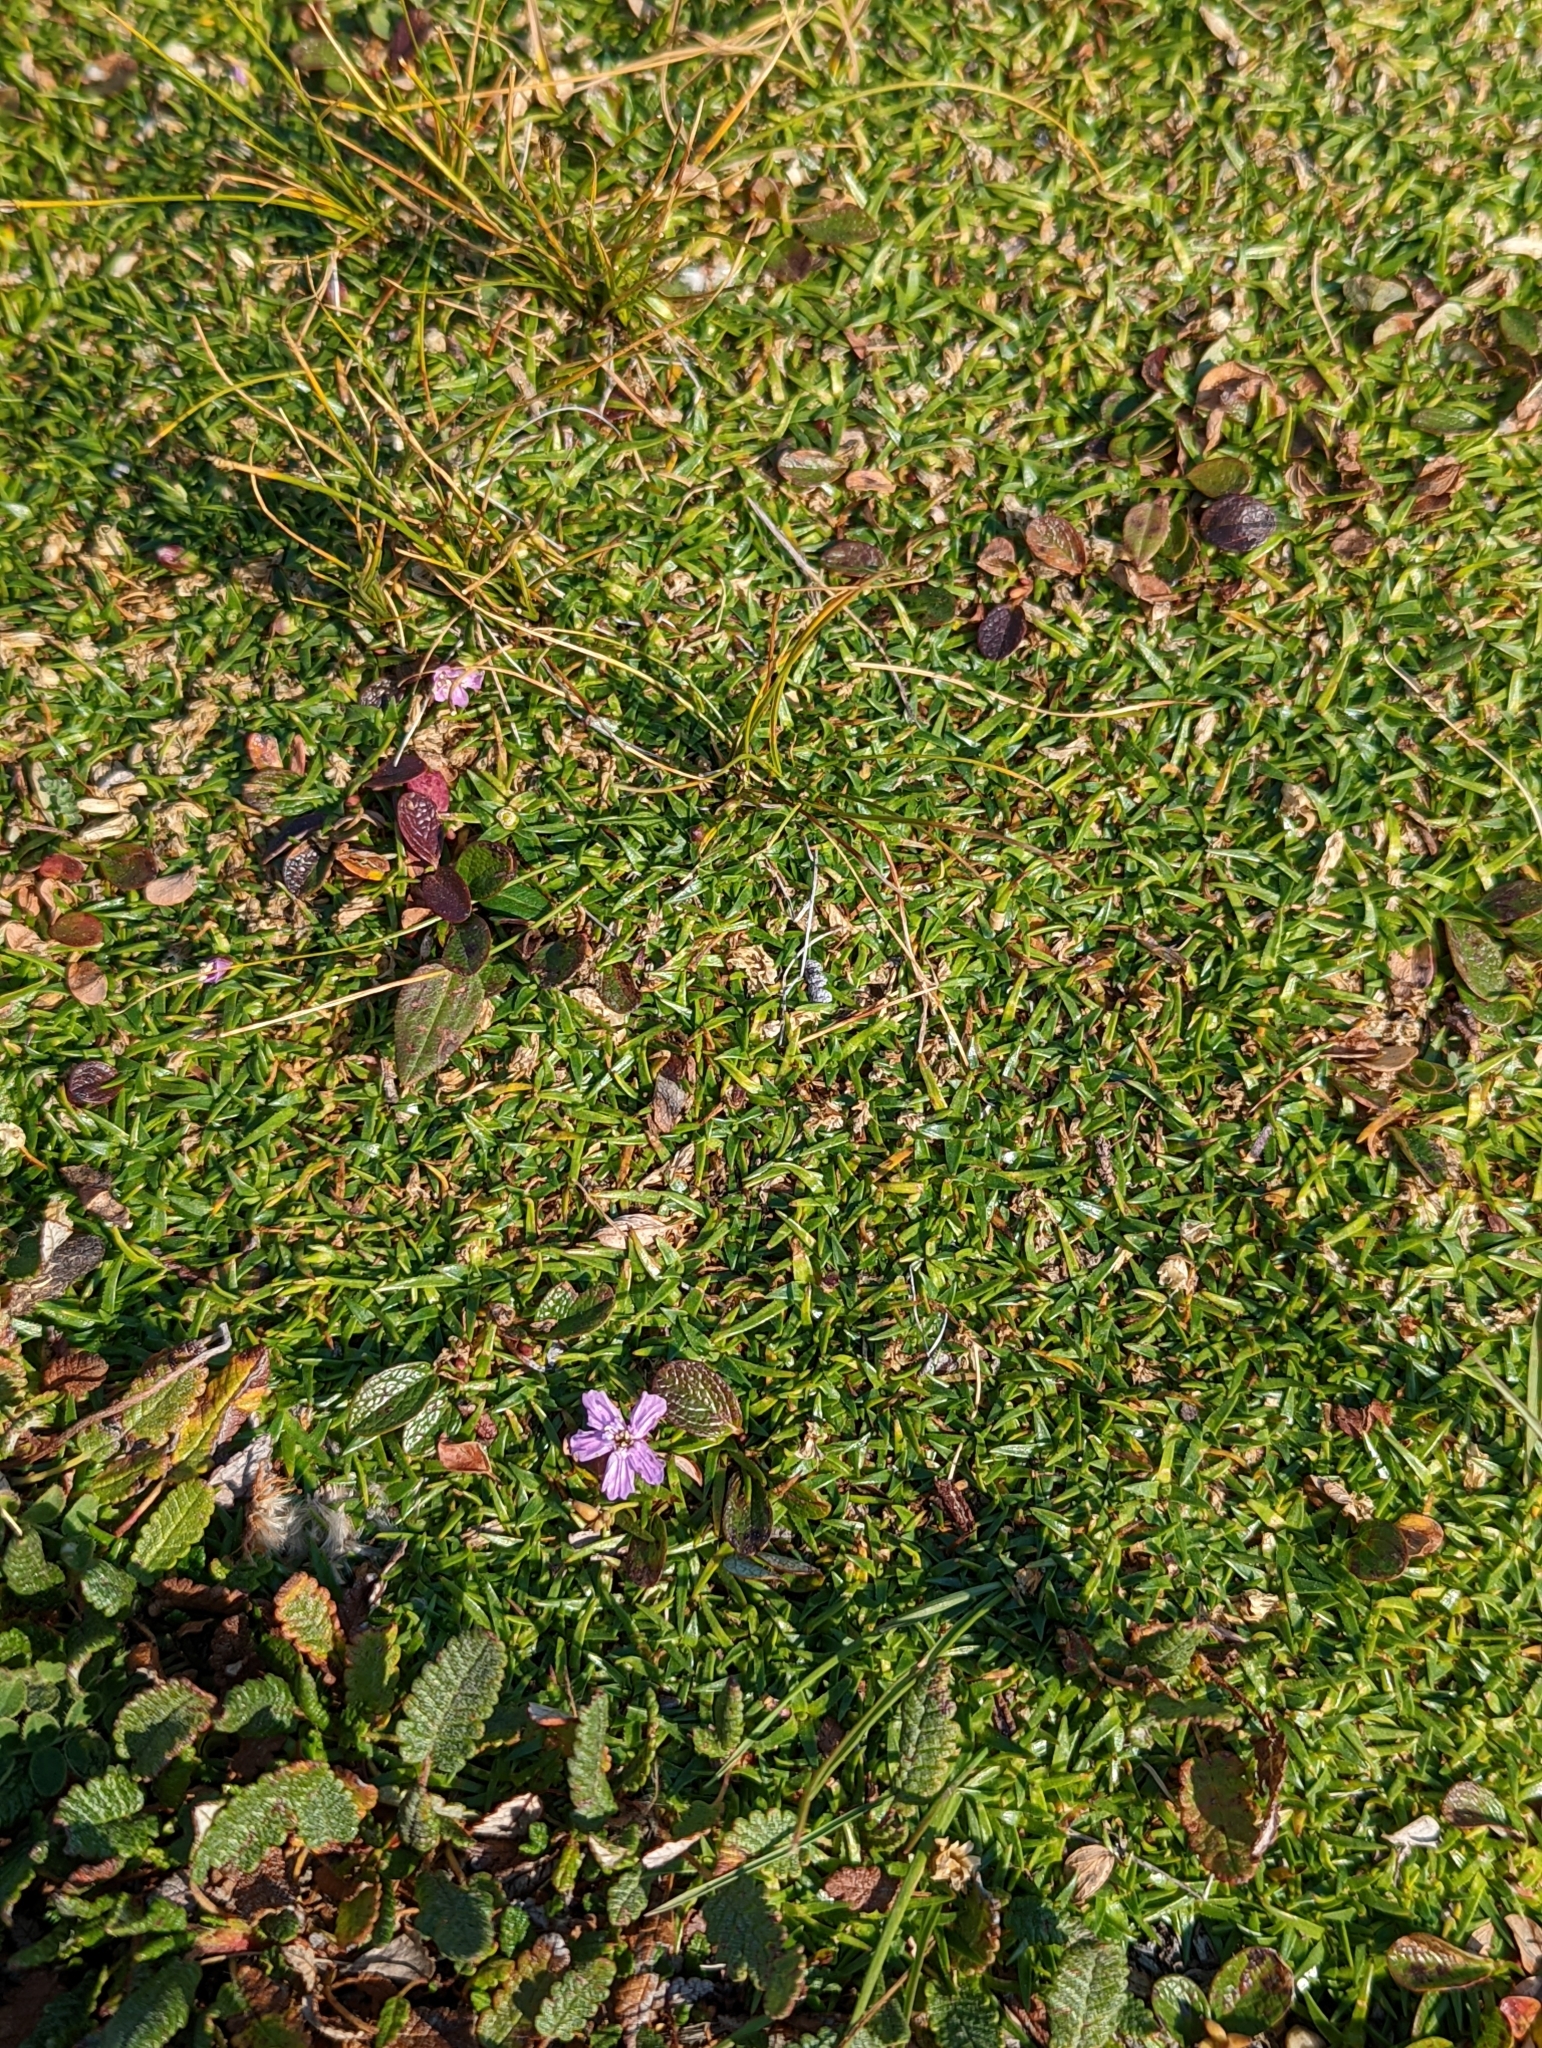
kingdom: Plantae
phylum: Tracheophyta
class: Magnoliopsida
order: Caryophyllales
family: Caryophyllaceae
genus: Silene
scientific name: Silene acaulis
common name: Moss campion
